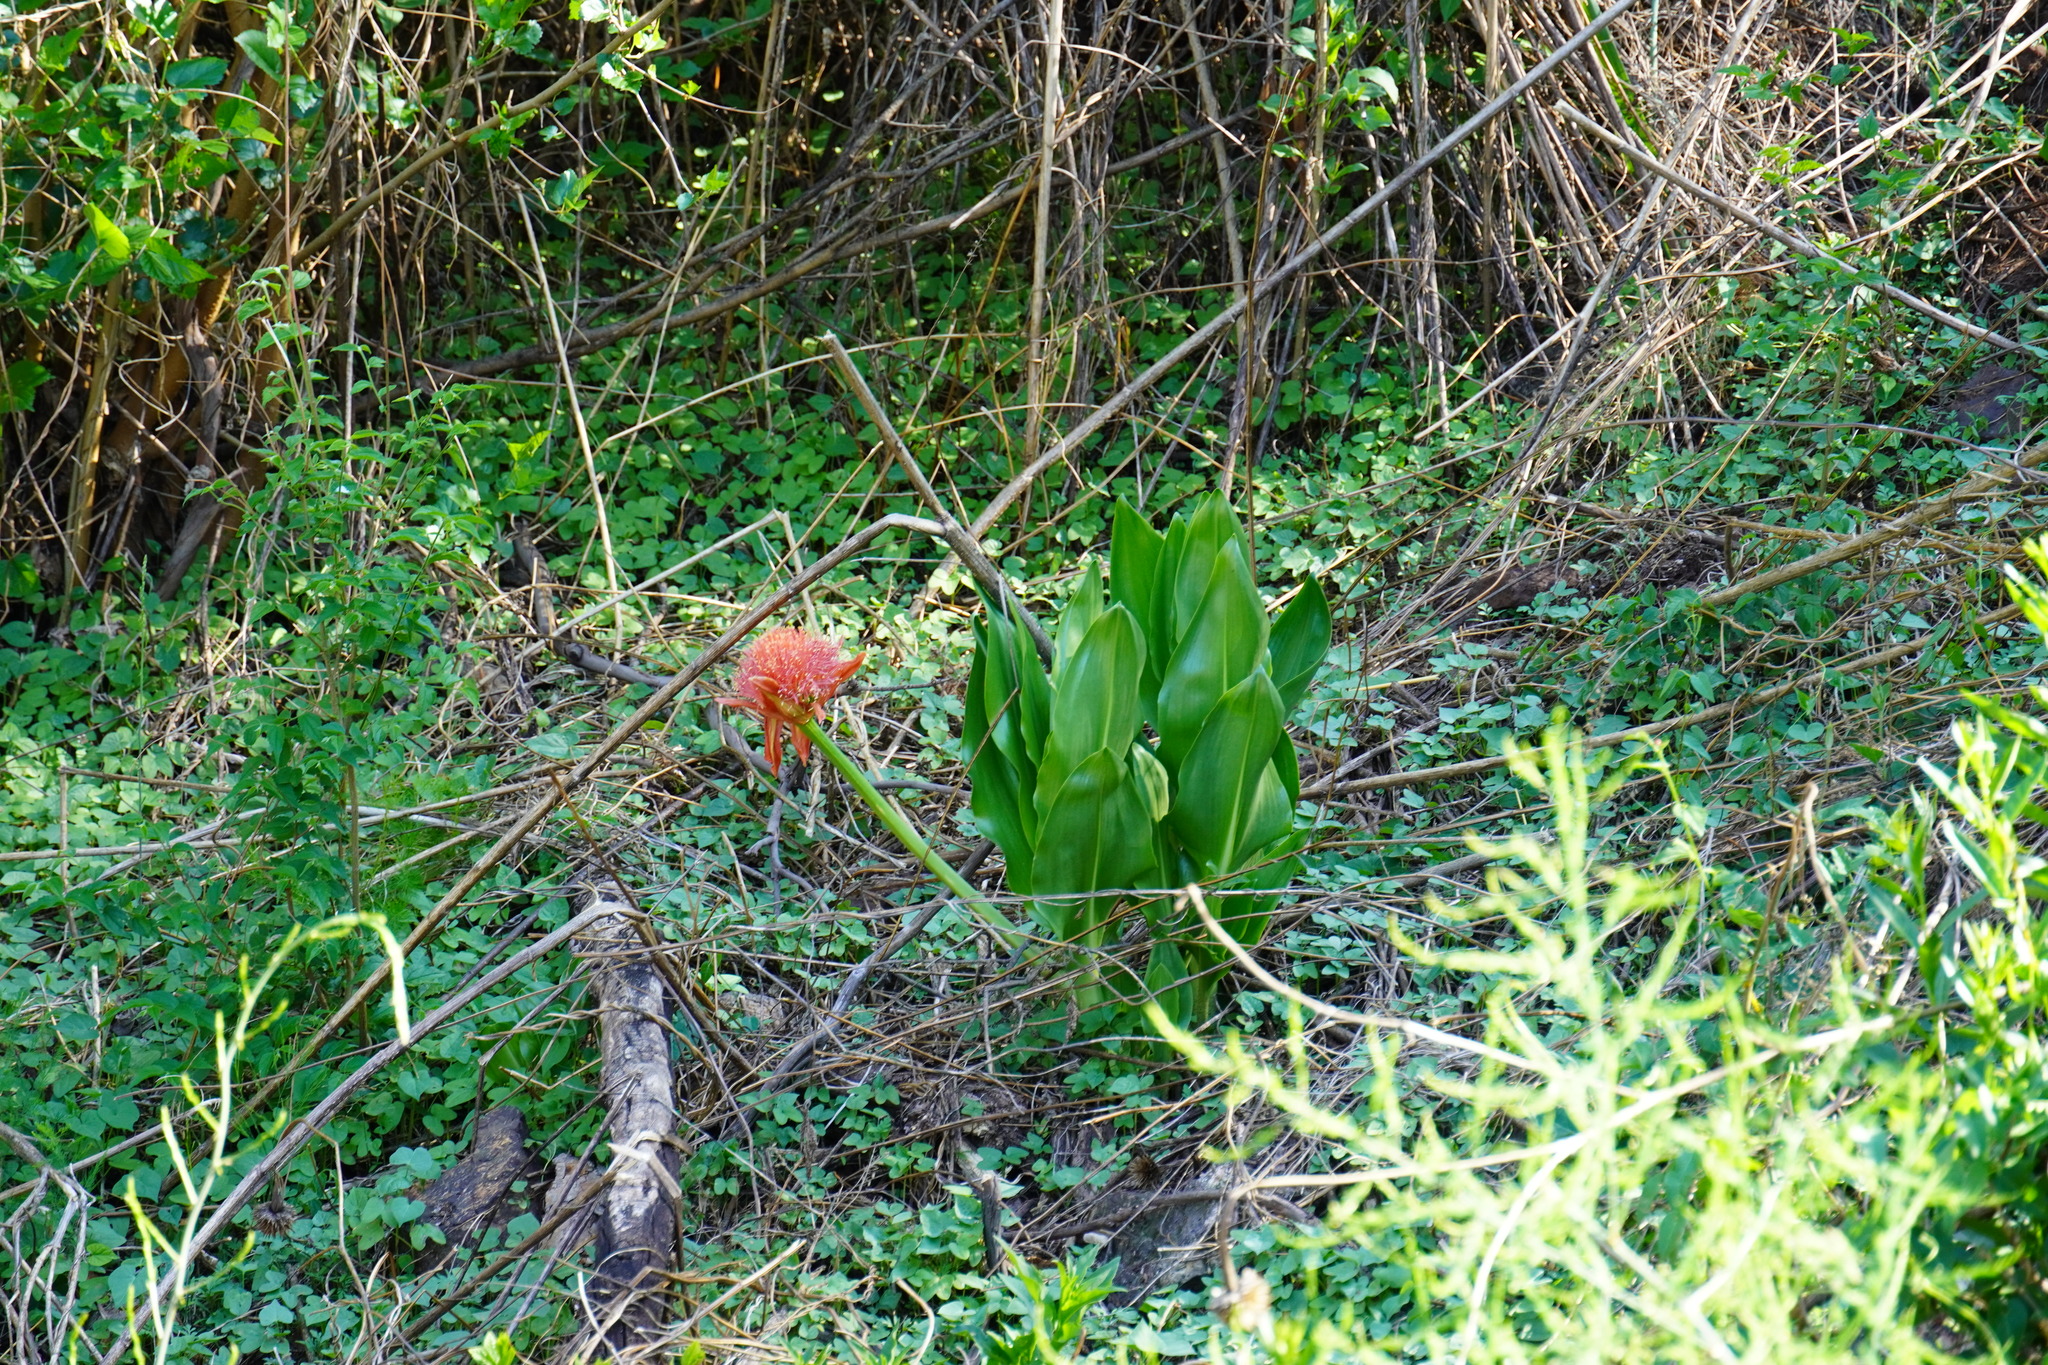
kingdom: Plantae
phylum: Tracheophyta
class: Liliopsida
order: Asparagales
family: Amaryllidaceae
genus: Scadoxus
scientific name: Scadoxus puniceus
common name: Royal-paintbrush
